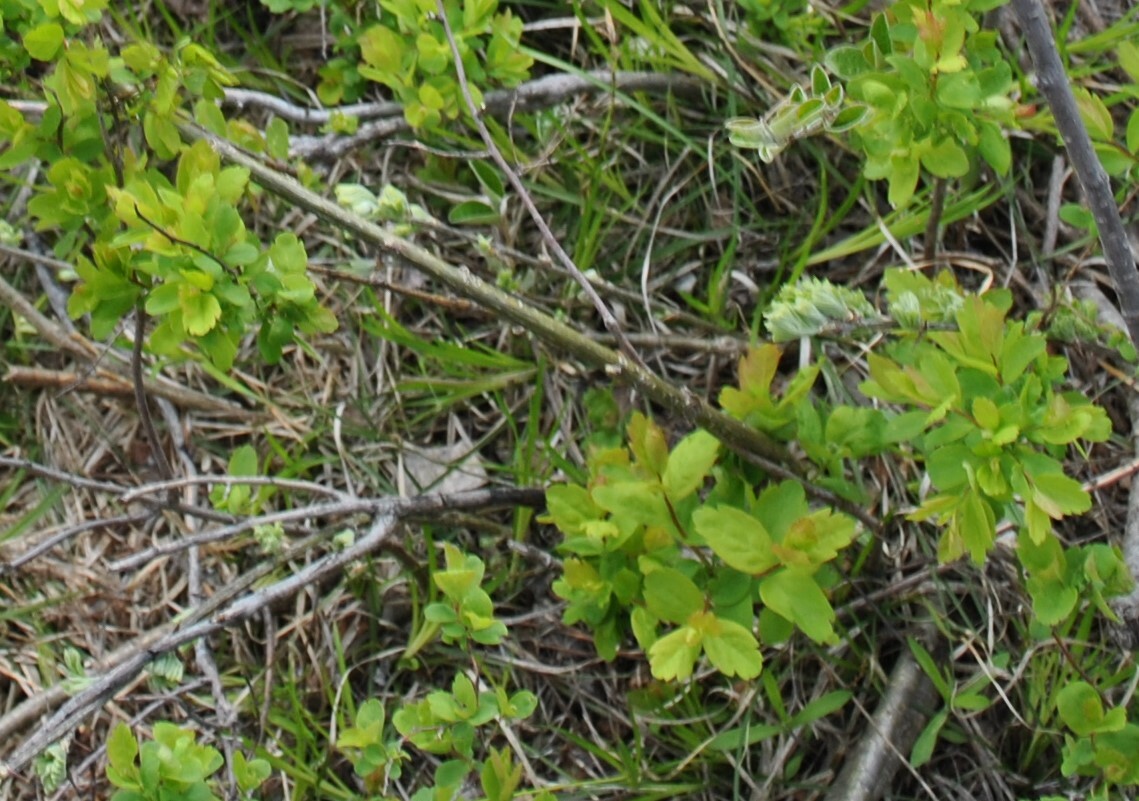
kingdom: Plantae
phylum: Tracheophyta
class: Magnoliopsida
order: Rosales
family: Rosaceae
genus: Spiraea
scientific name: Spiraea media
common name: Russian spiraea
